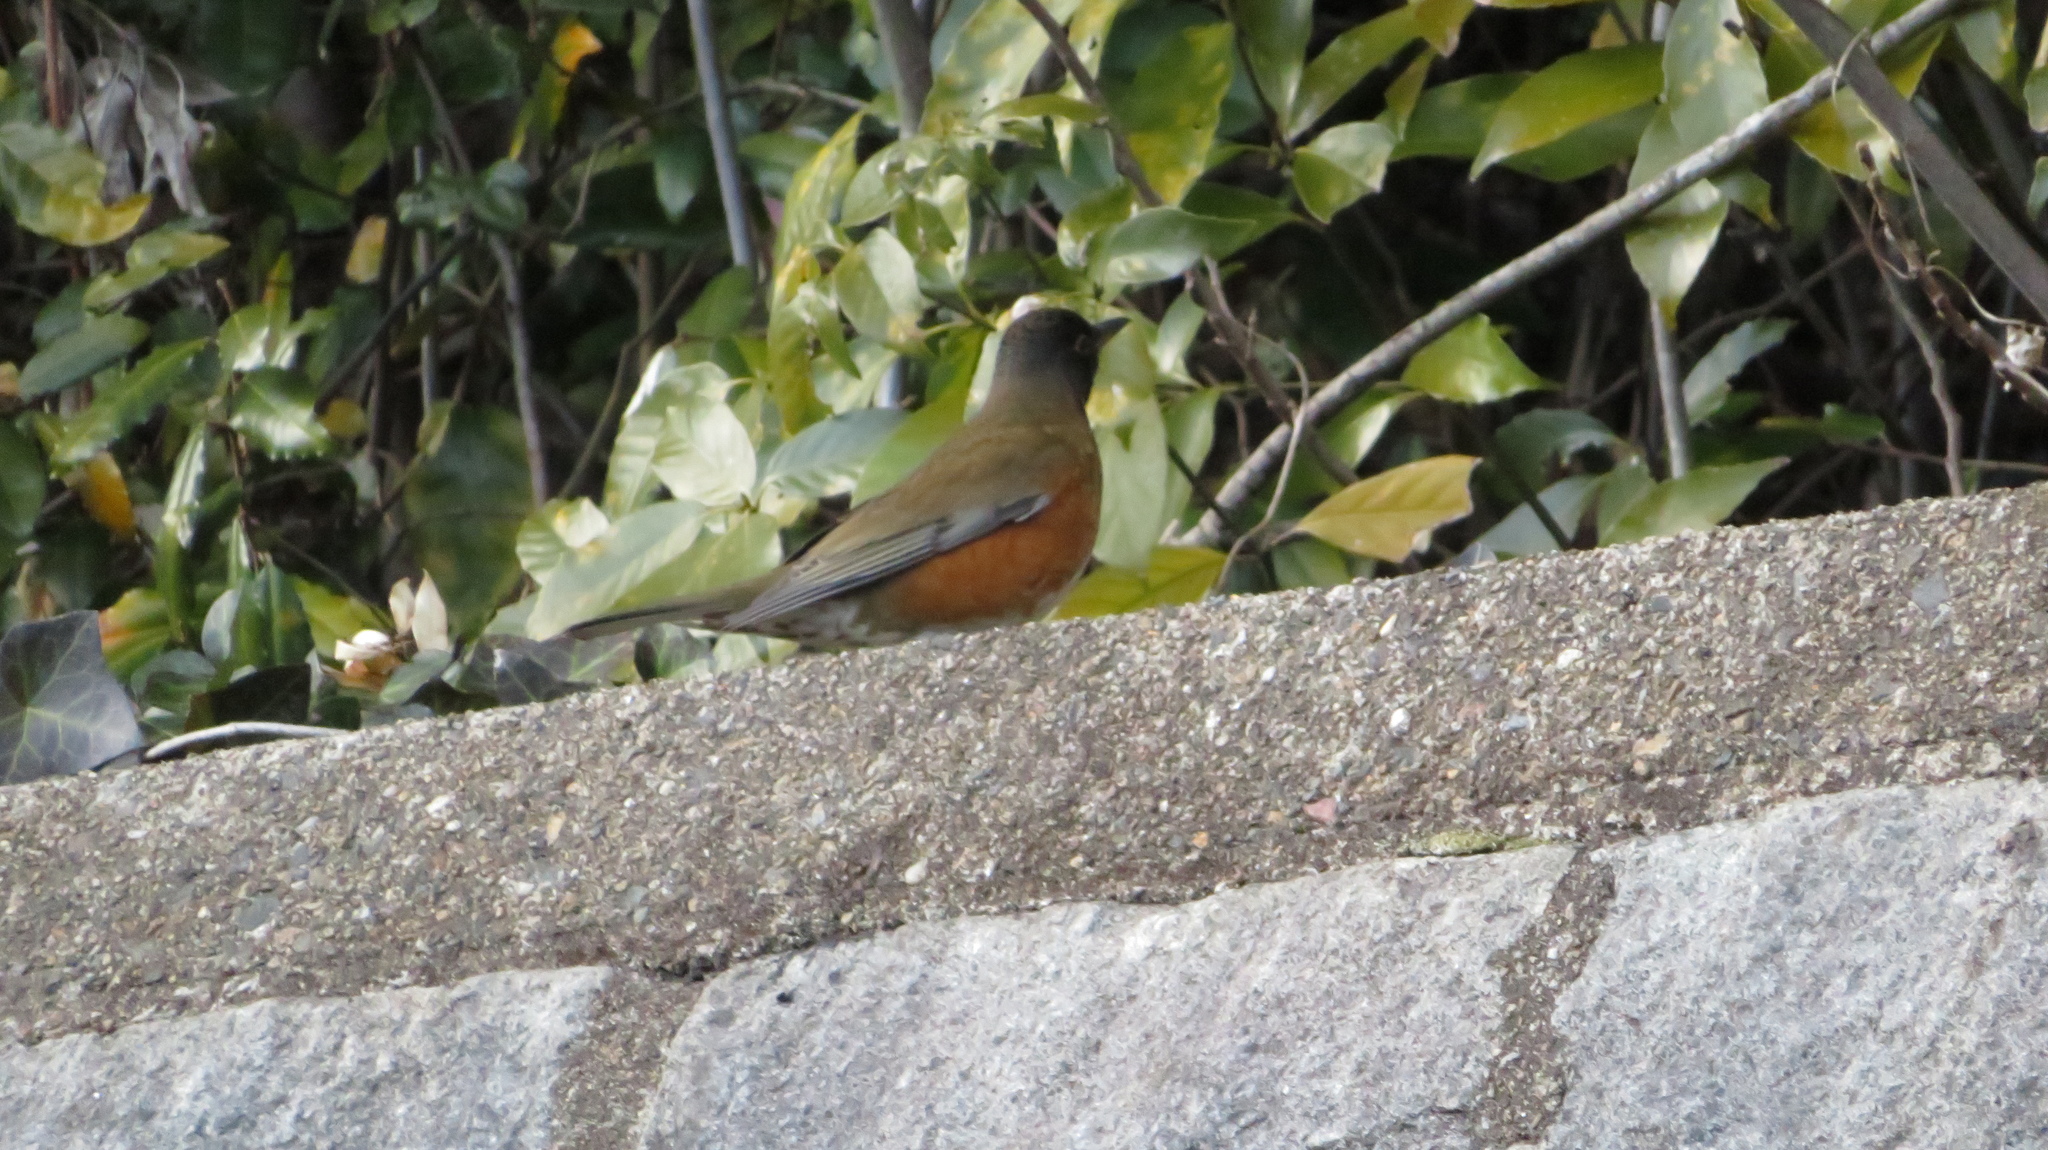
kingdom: Animalia
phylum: Chordata
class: Aves
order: Passeriformes
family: Turdidae
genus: Turdus
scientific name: Turdus chrysolaus
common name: Brown-headed thrush
